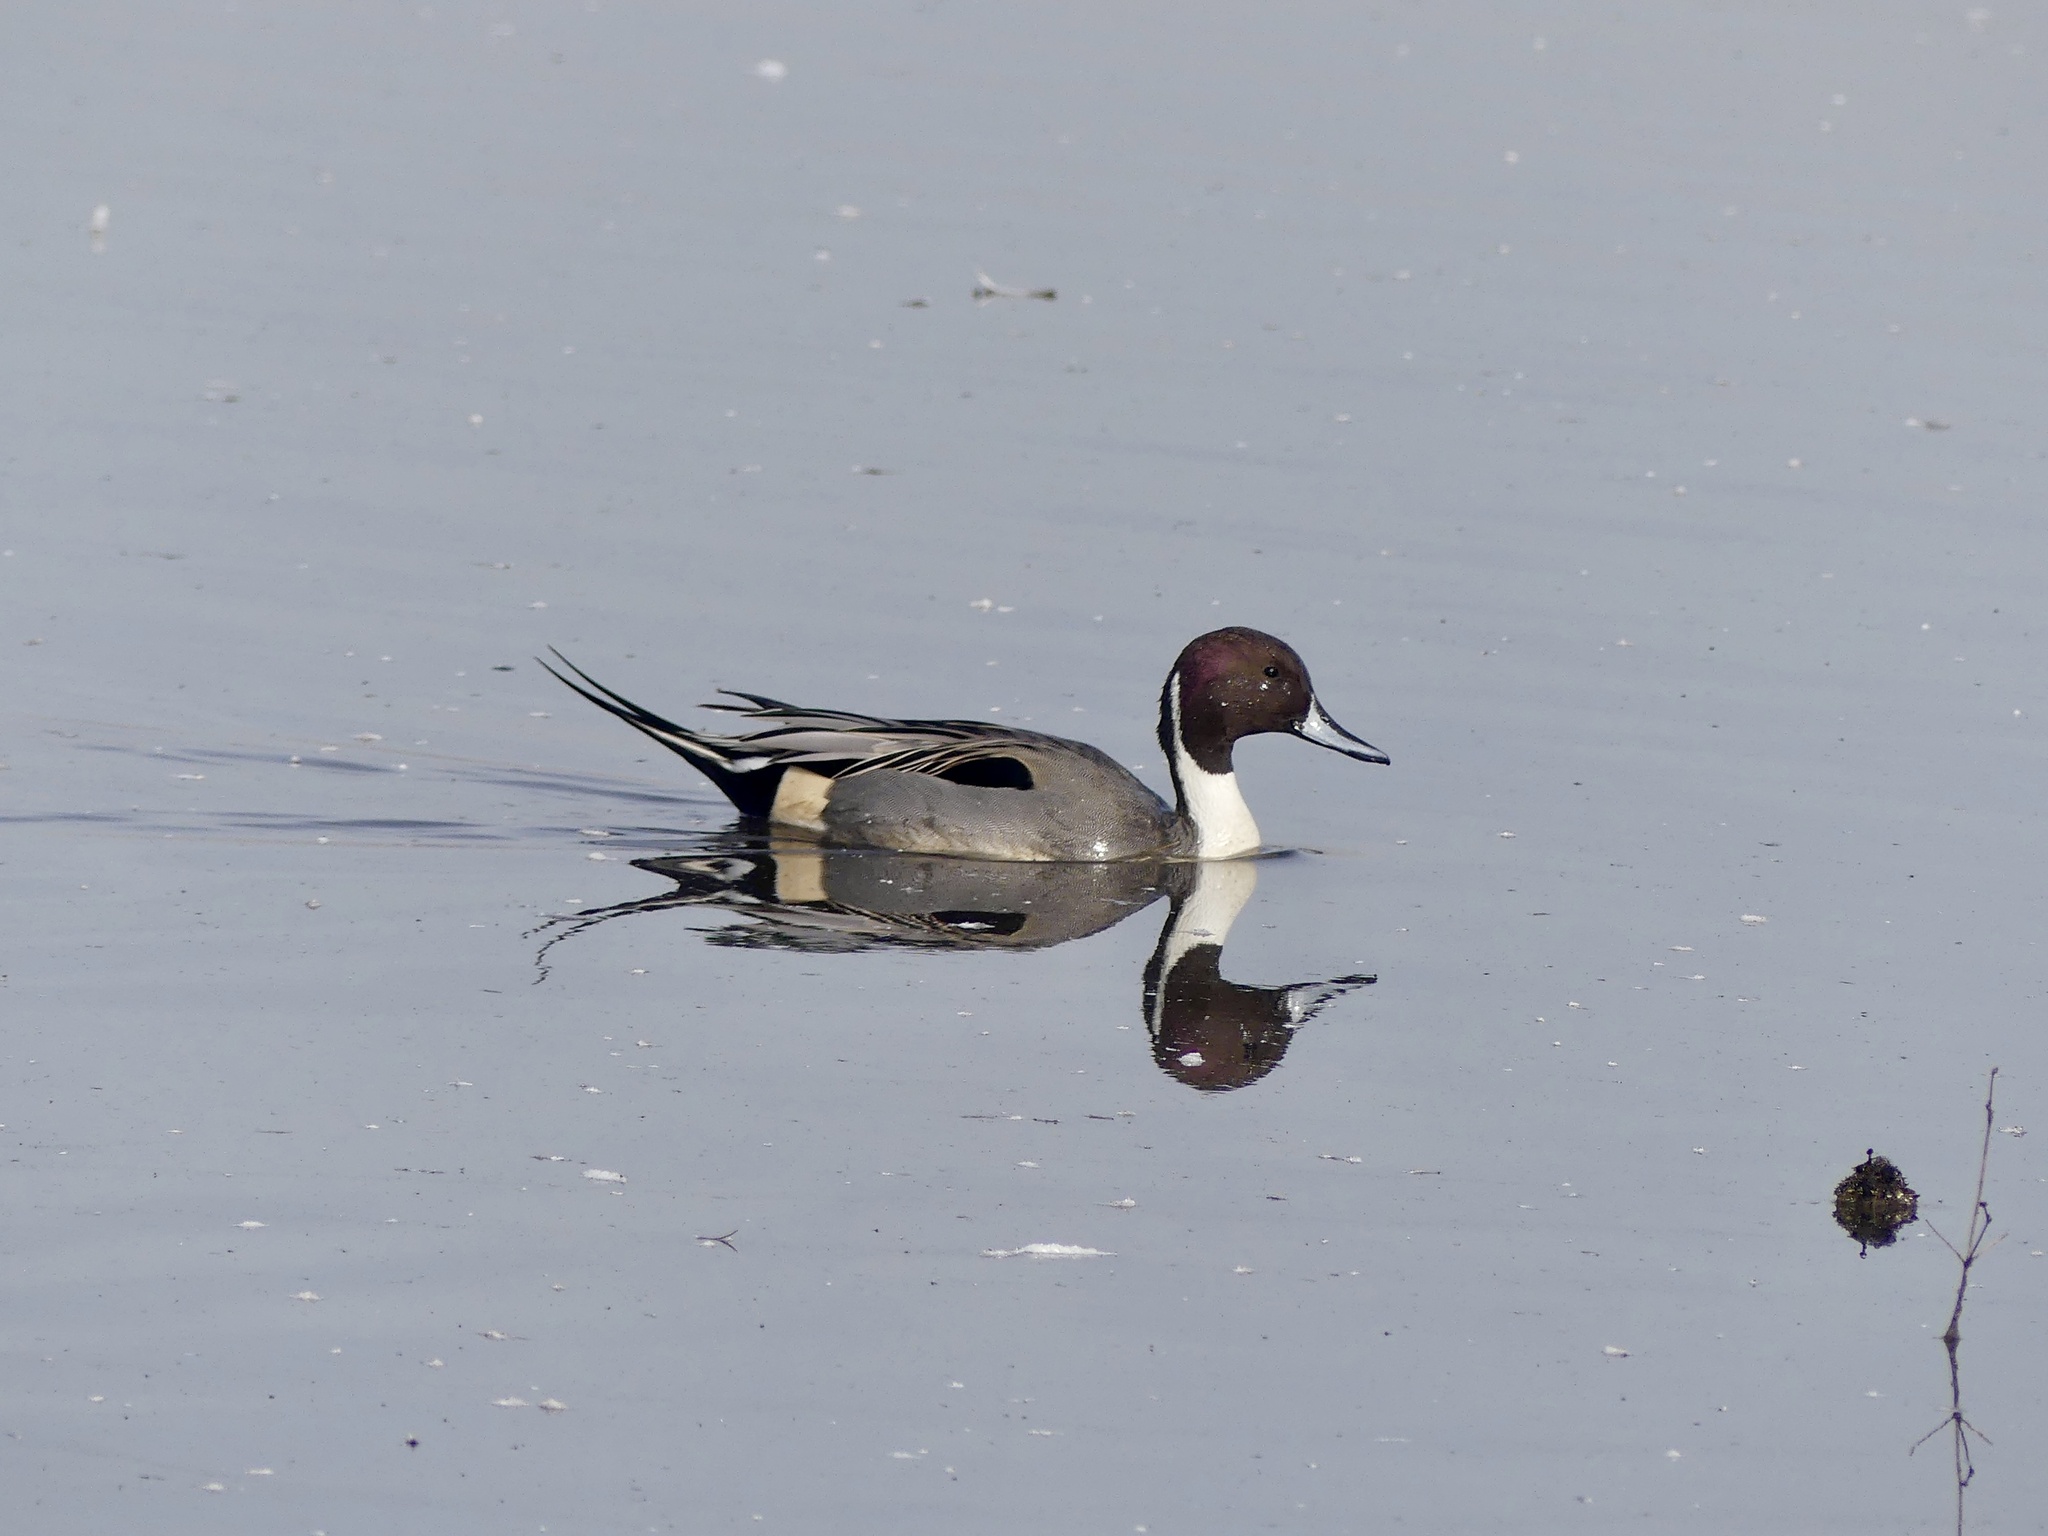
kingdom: Animalia
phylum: Chordata
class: Aves
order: Anseriformes
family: Anatidae
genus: Anas
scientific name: Anas acuta
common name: Northern pintail
